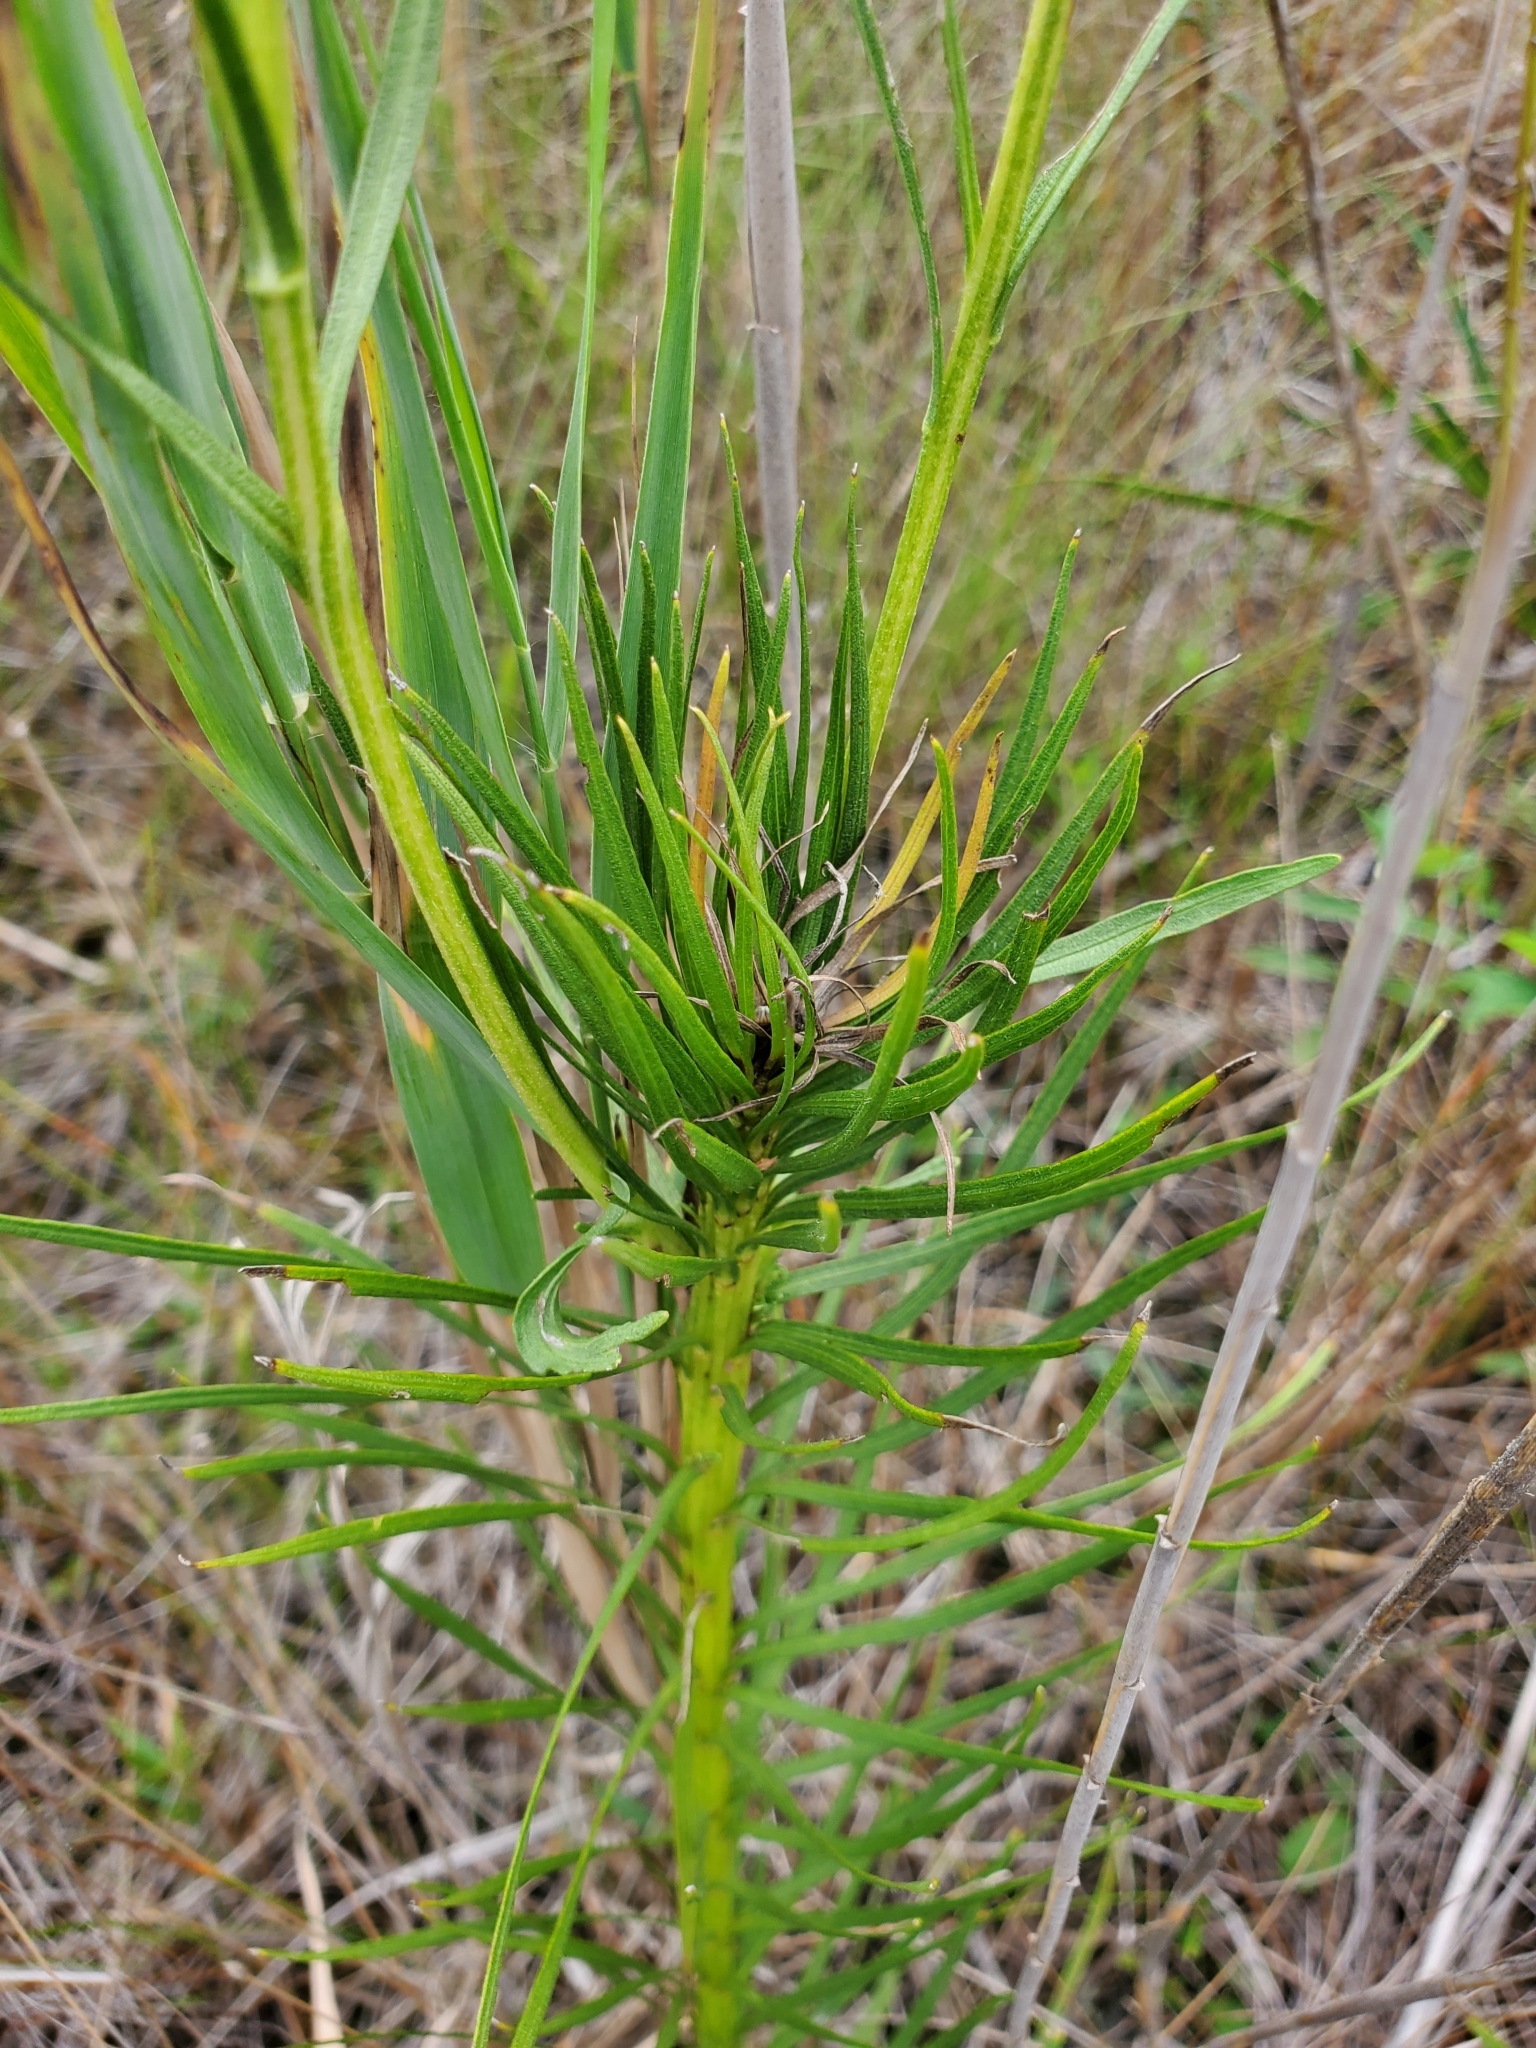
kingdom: Plantae
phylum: Tracheophyta
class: Magnoliopsida
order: Asterales
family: Asteraceae
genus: Liatris
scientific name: Liatris spicata
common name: Florist gayfeather
